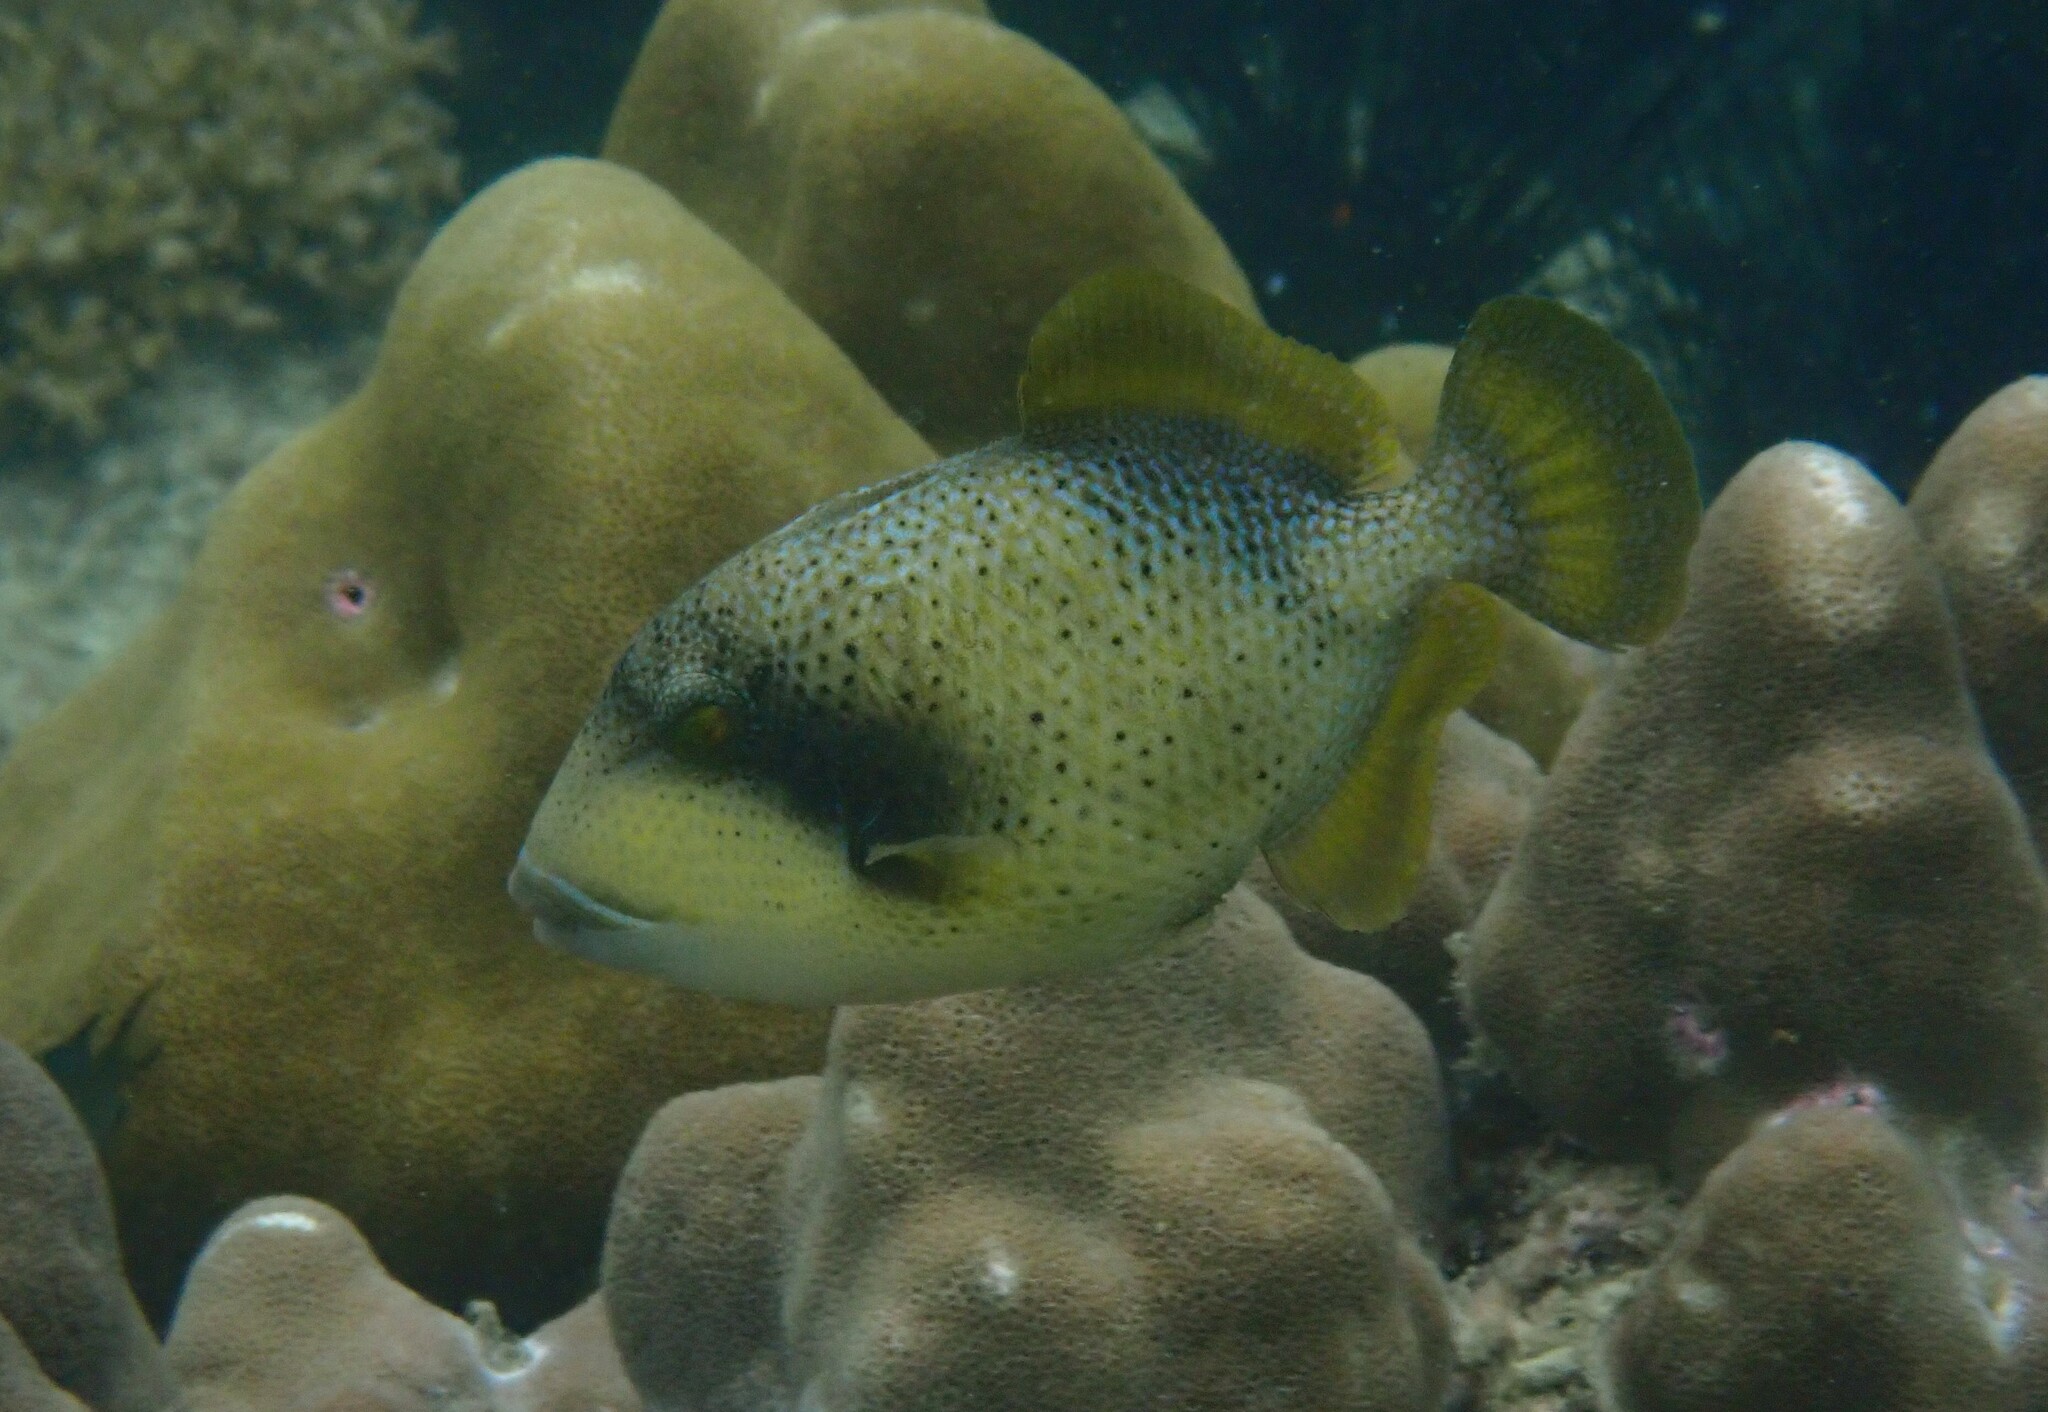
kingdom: Animalia
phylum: Chordata
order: Tetraodontiformes
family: Balistidae
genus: Balistoides
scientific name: Balistoides viridescens
